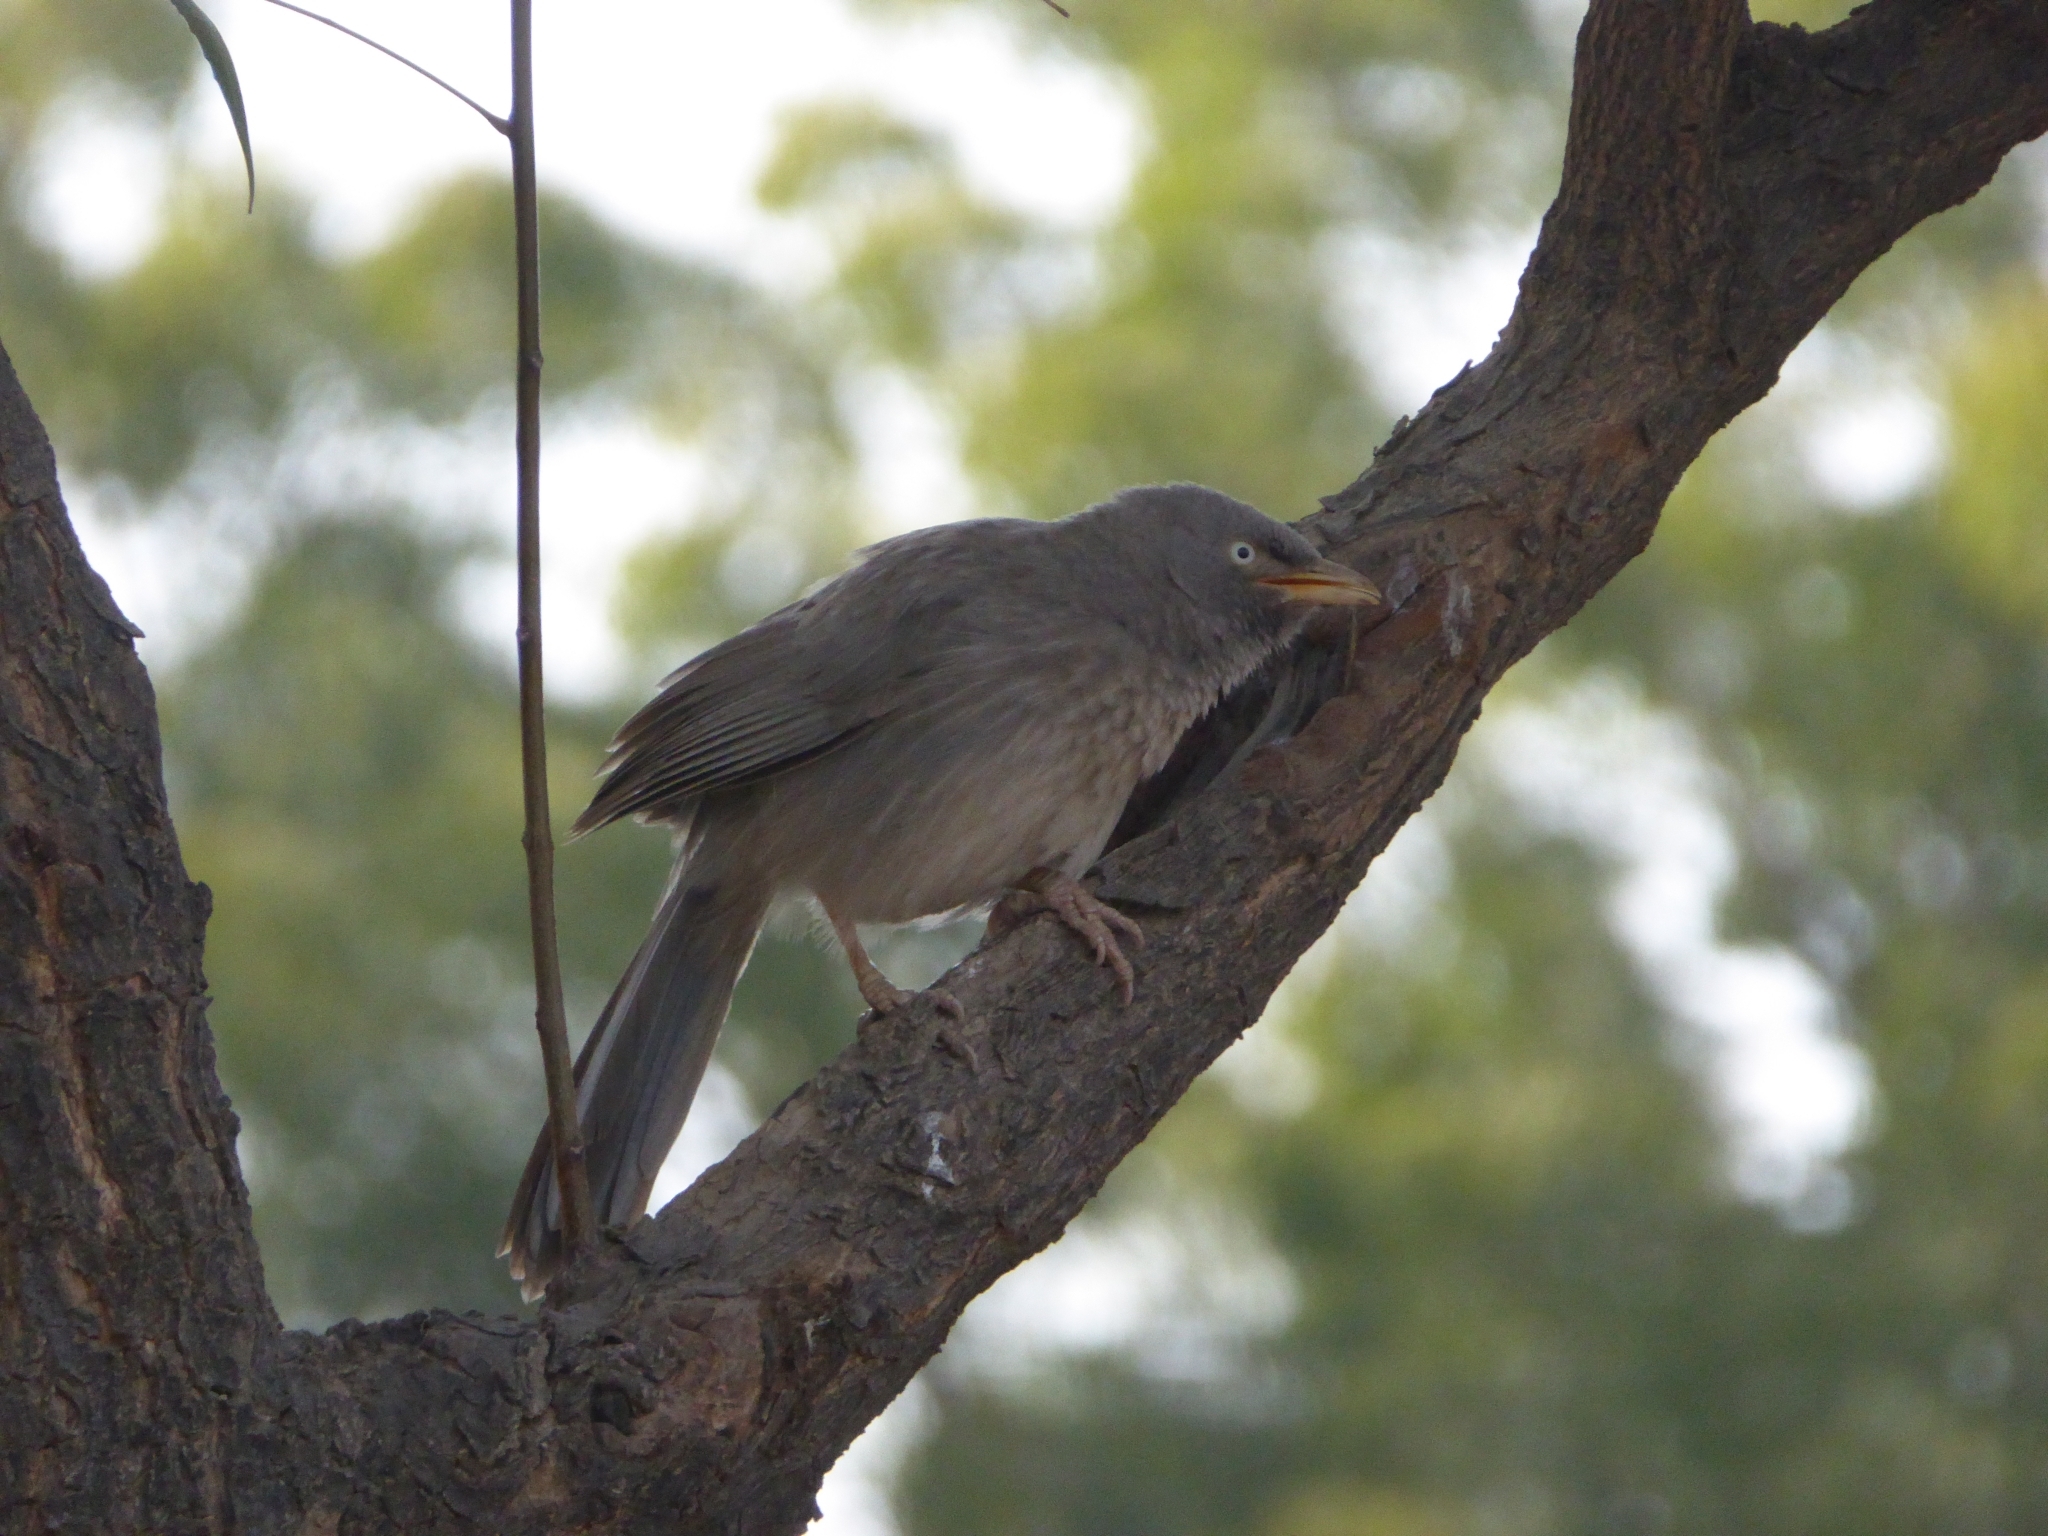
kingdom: Animalia
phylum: Chordata
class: Aves
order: Passeriformes
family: Leiothrichidae
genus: Turdoides
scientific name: Turdoides striata
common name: Jungle babbler
